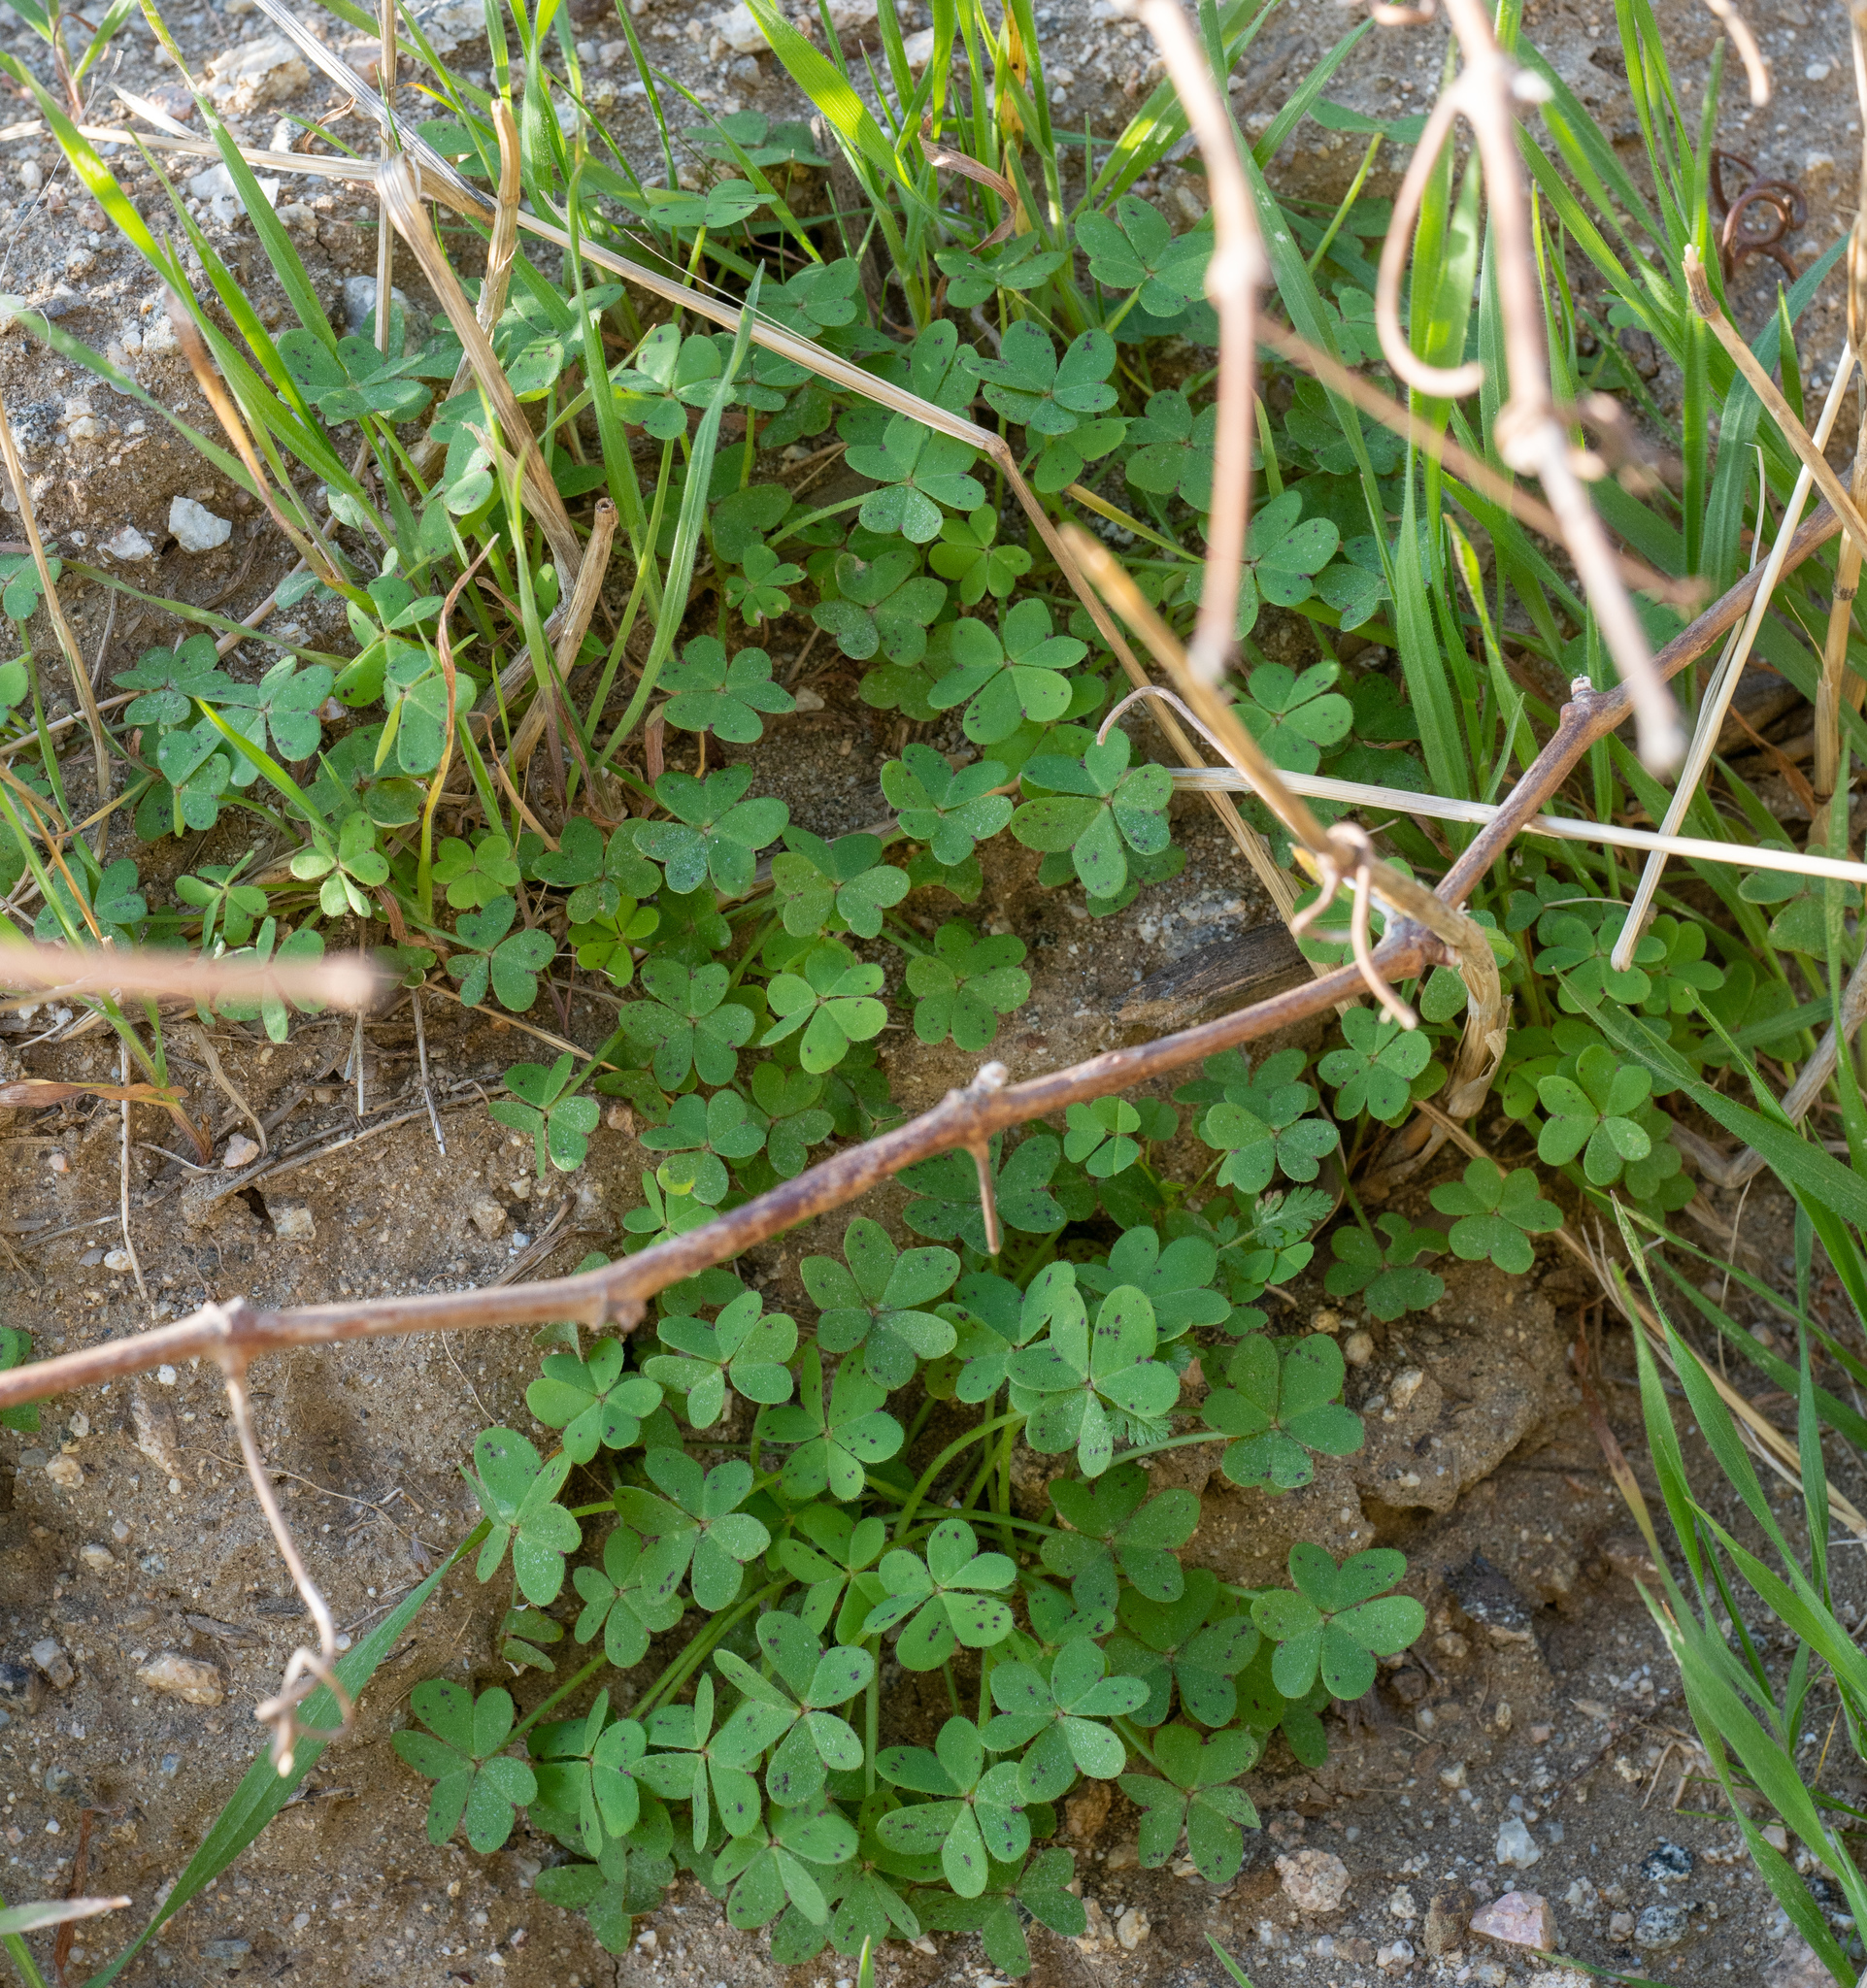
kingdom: Plantae
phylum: Tracheophyta
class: Magnoliopsida
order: Oxalidales
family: Oxalidaceae
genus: Oxalis
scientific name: Oxalis pes-caprae
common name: Bermuda-buttercup
